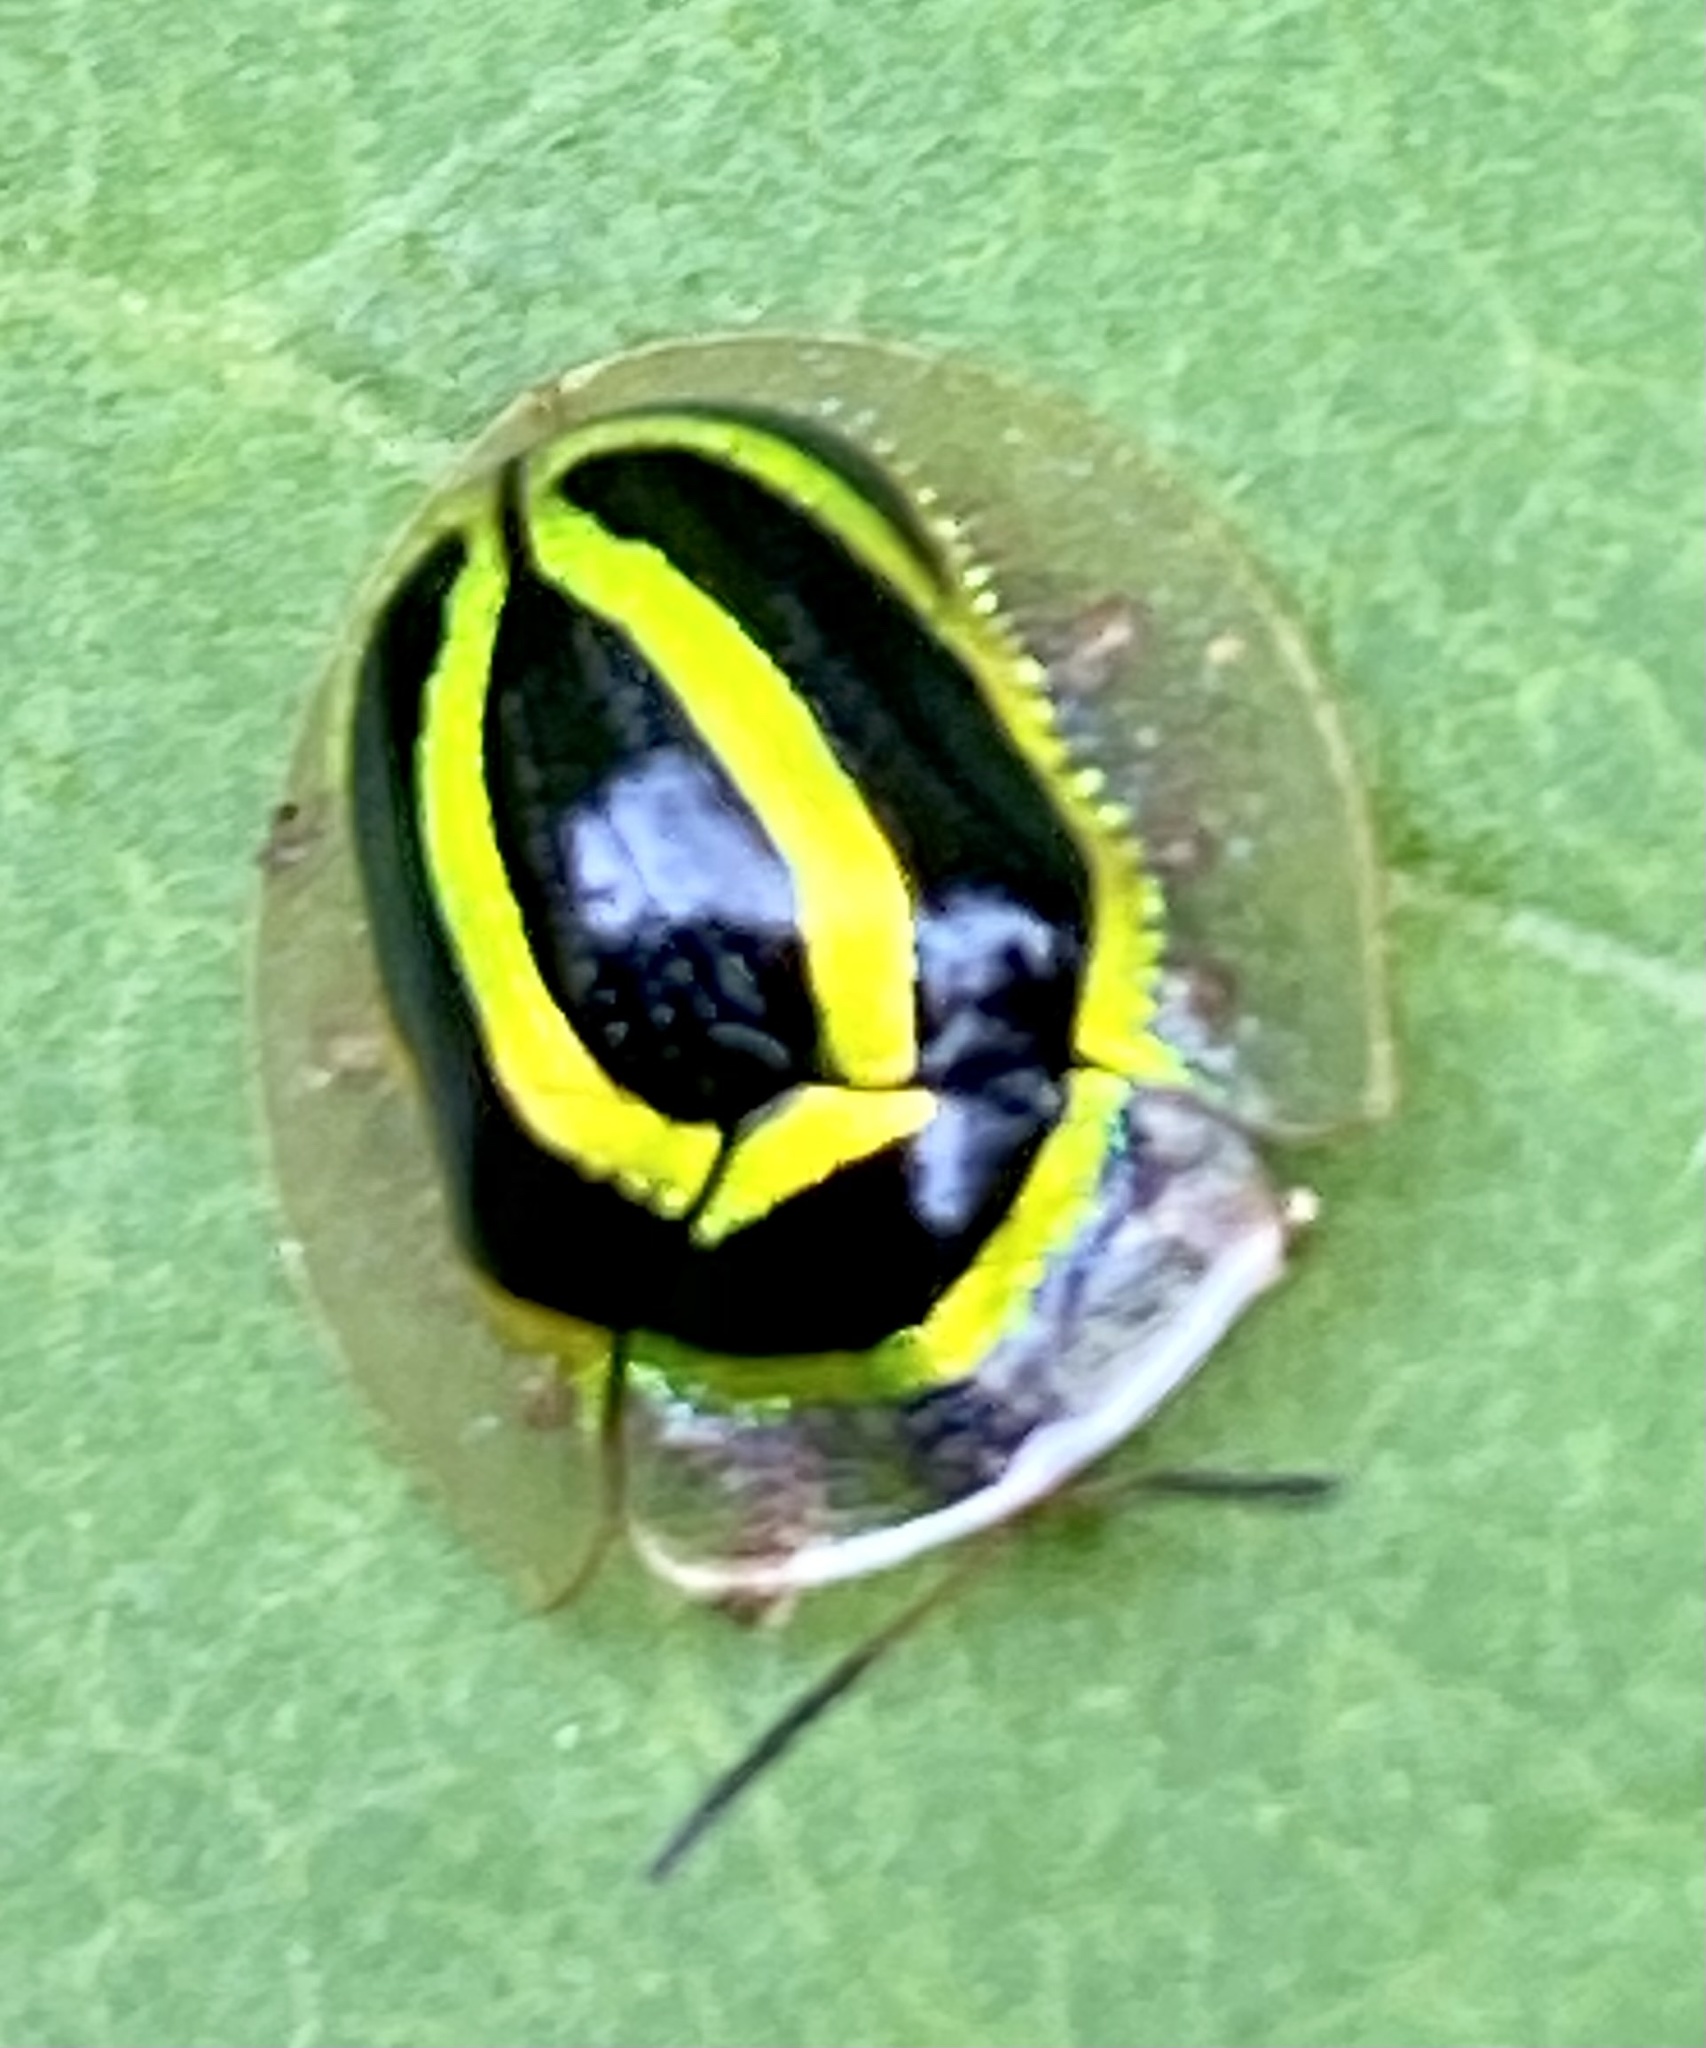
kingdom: Animalia
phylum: Arthropoda
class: Insecta
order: Coleoptera
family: Chrysomelidae
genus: Coptocycla
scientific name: Coptocycla arcuata
